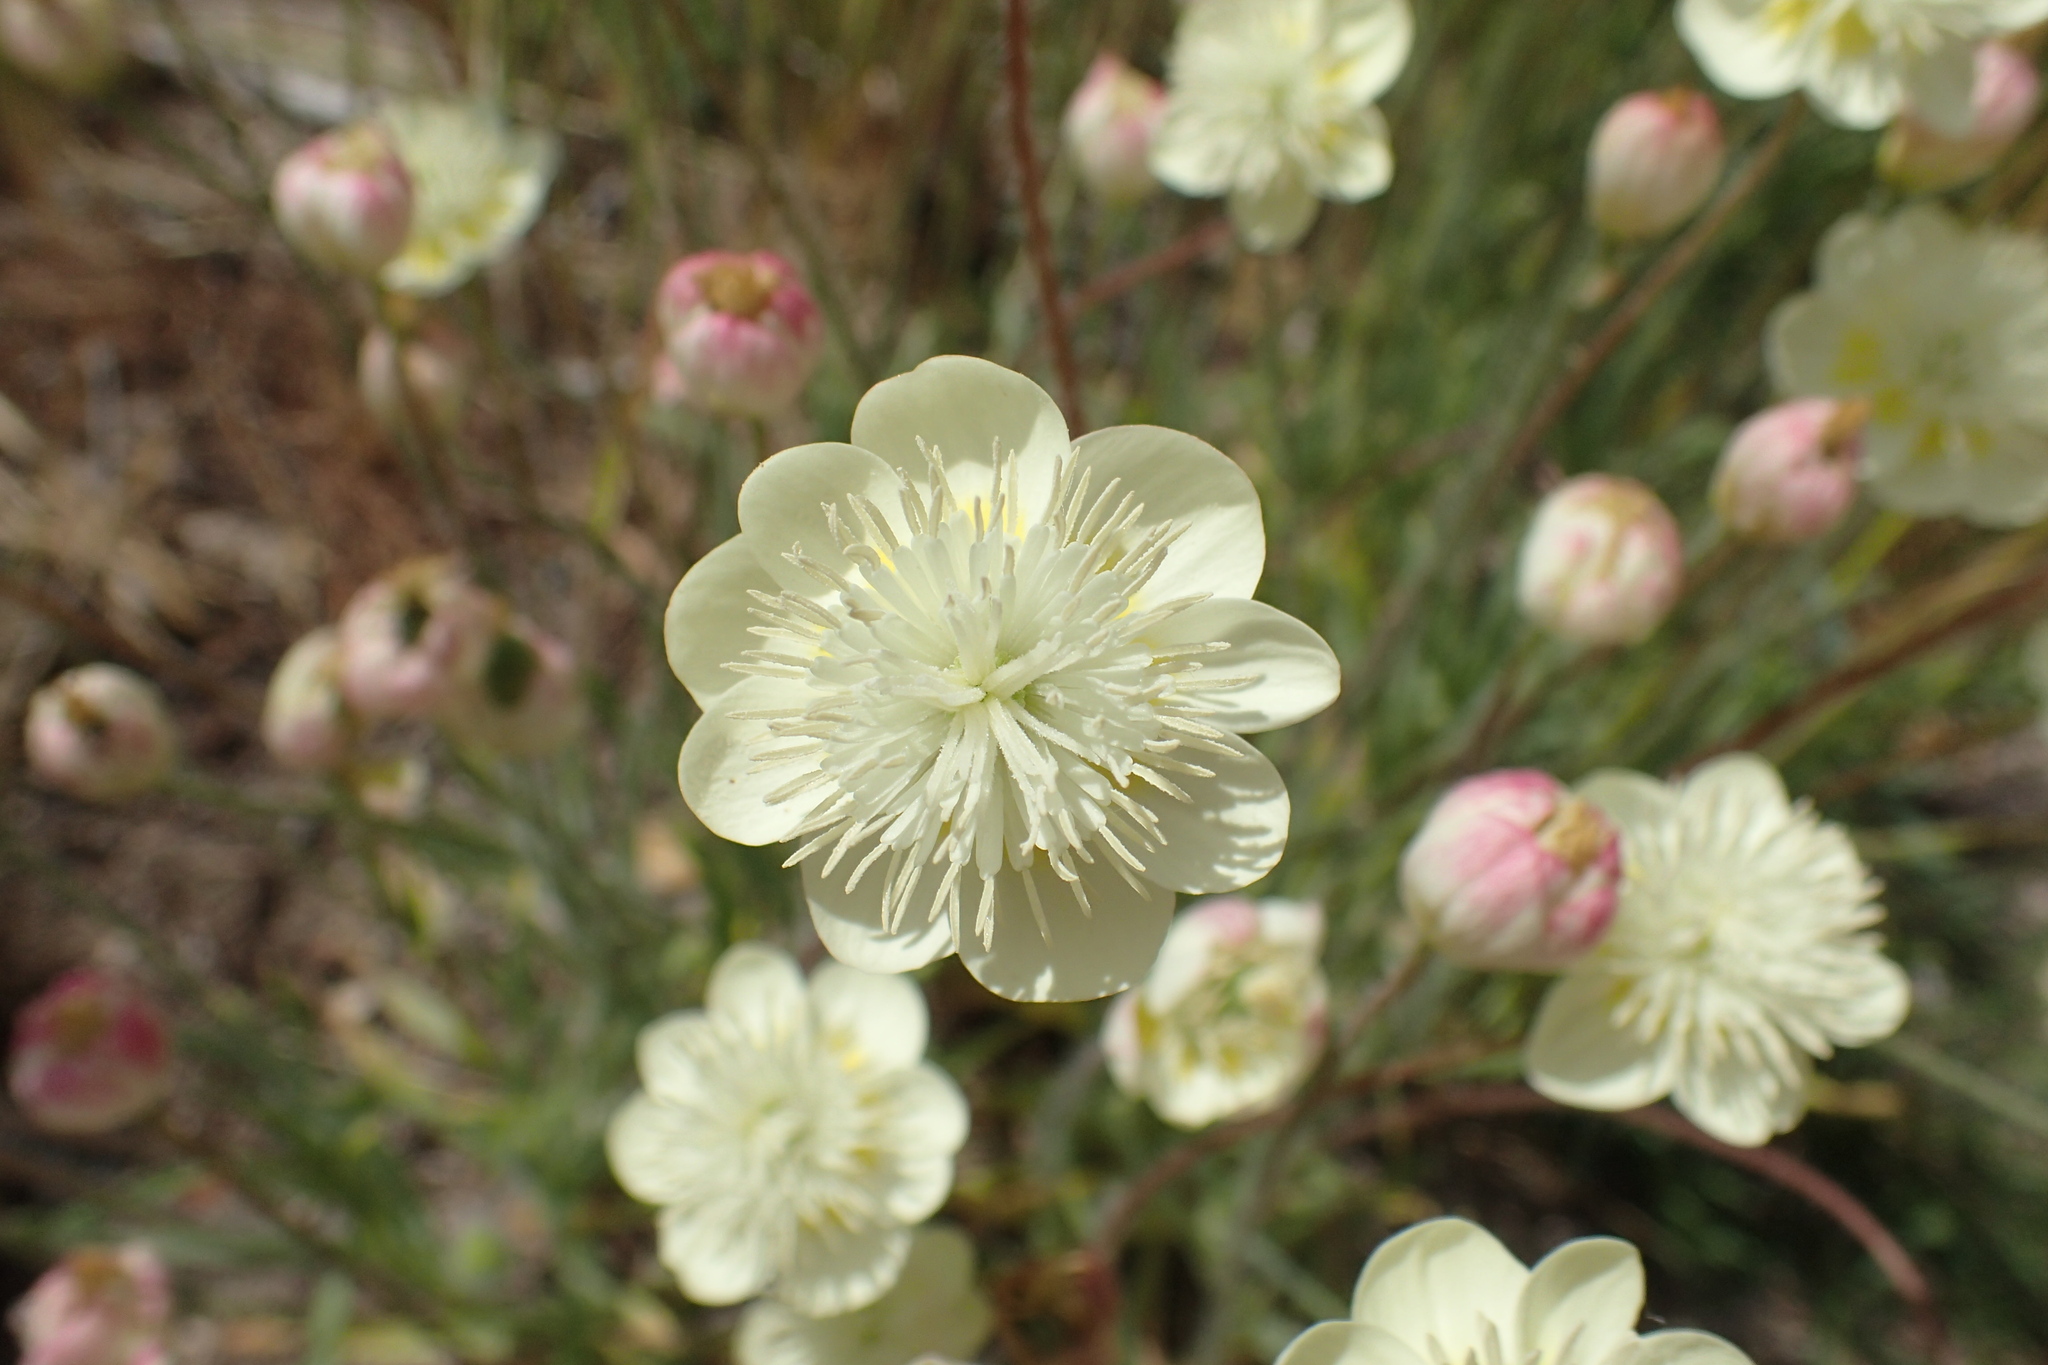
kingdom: Plantae
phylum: Tracheophyta
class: Magnoliopsida
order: Ranunculales
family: Papaveraceae
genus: Platystemon
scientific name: Platystemon californicus
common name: Cream-cups
